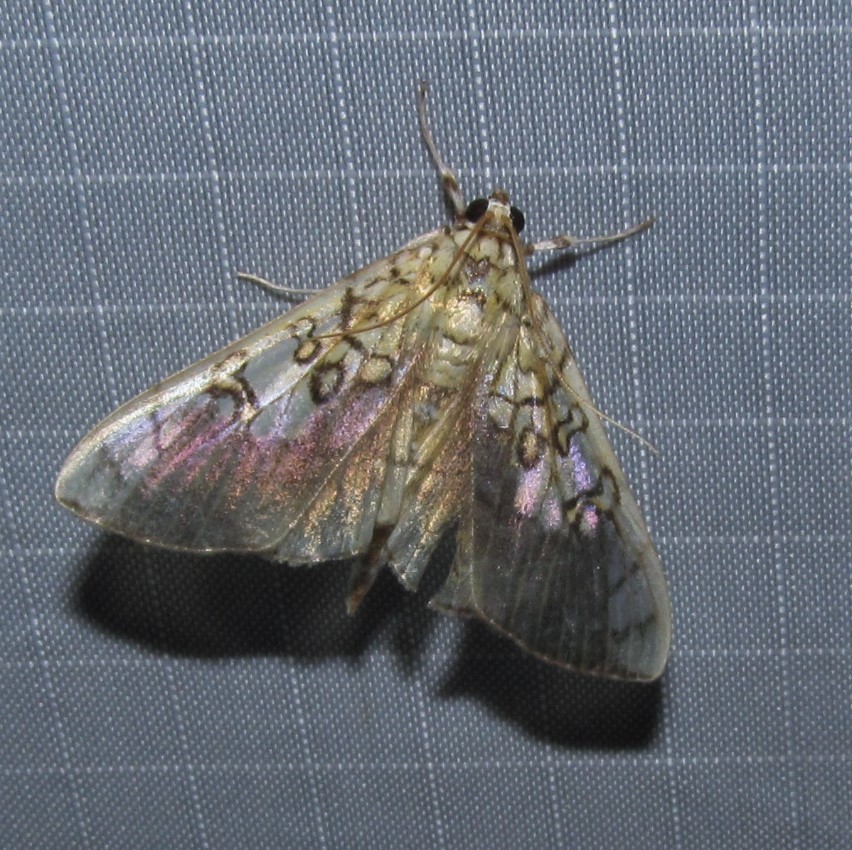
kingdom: Animalia
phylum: Arthropoda
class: Insecta
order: Lepidoptera
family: Crambidae
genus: Pantographa
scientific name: Pantographa limata
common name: Basswood leafroller moth
